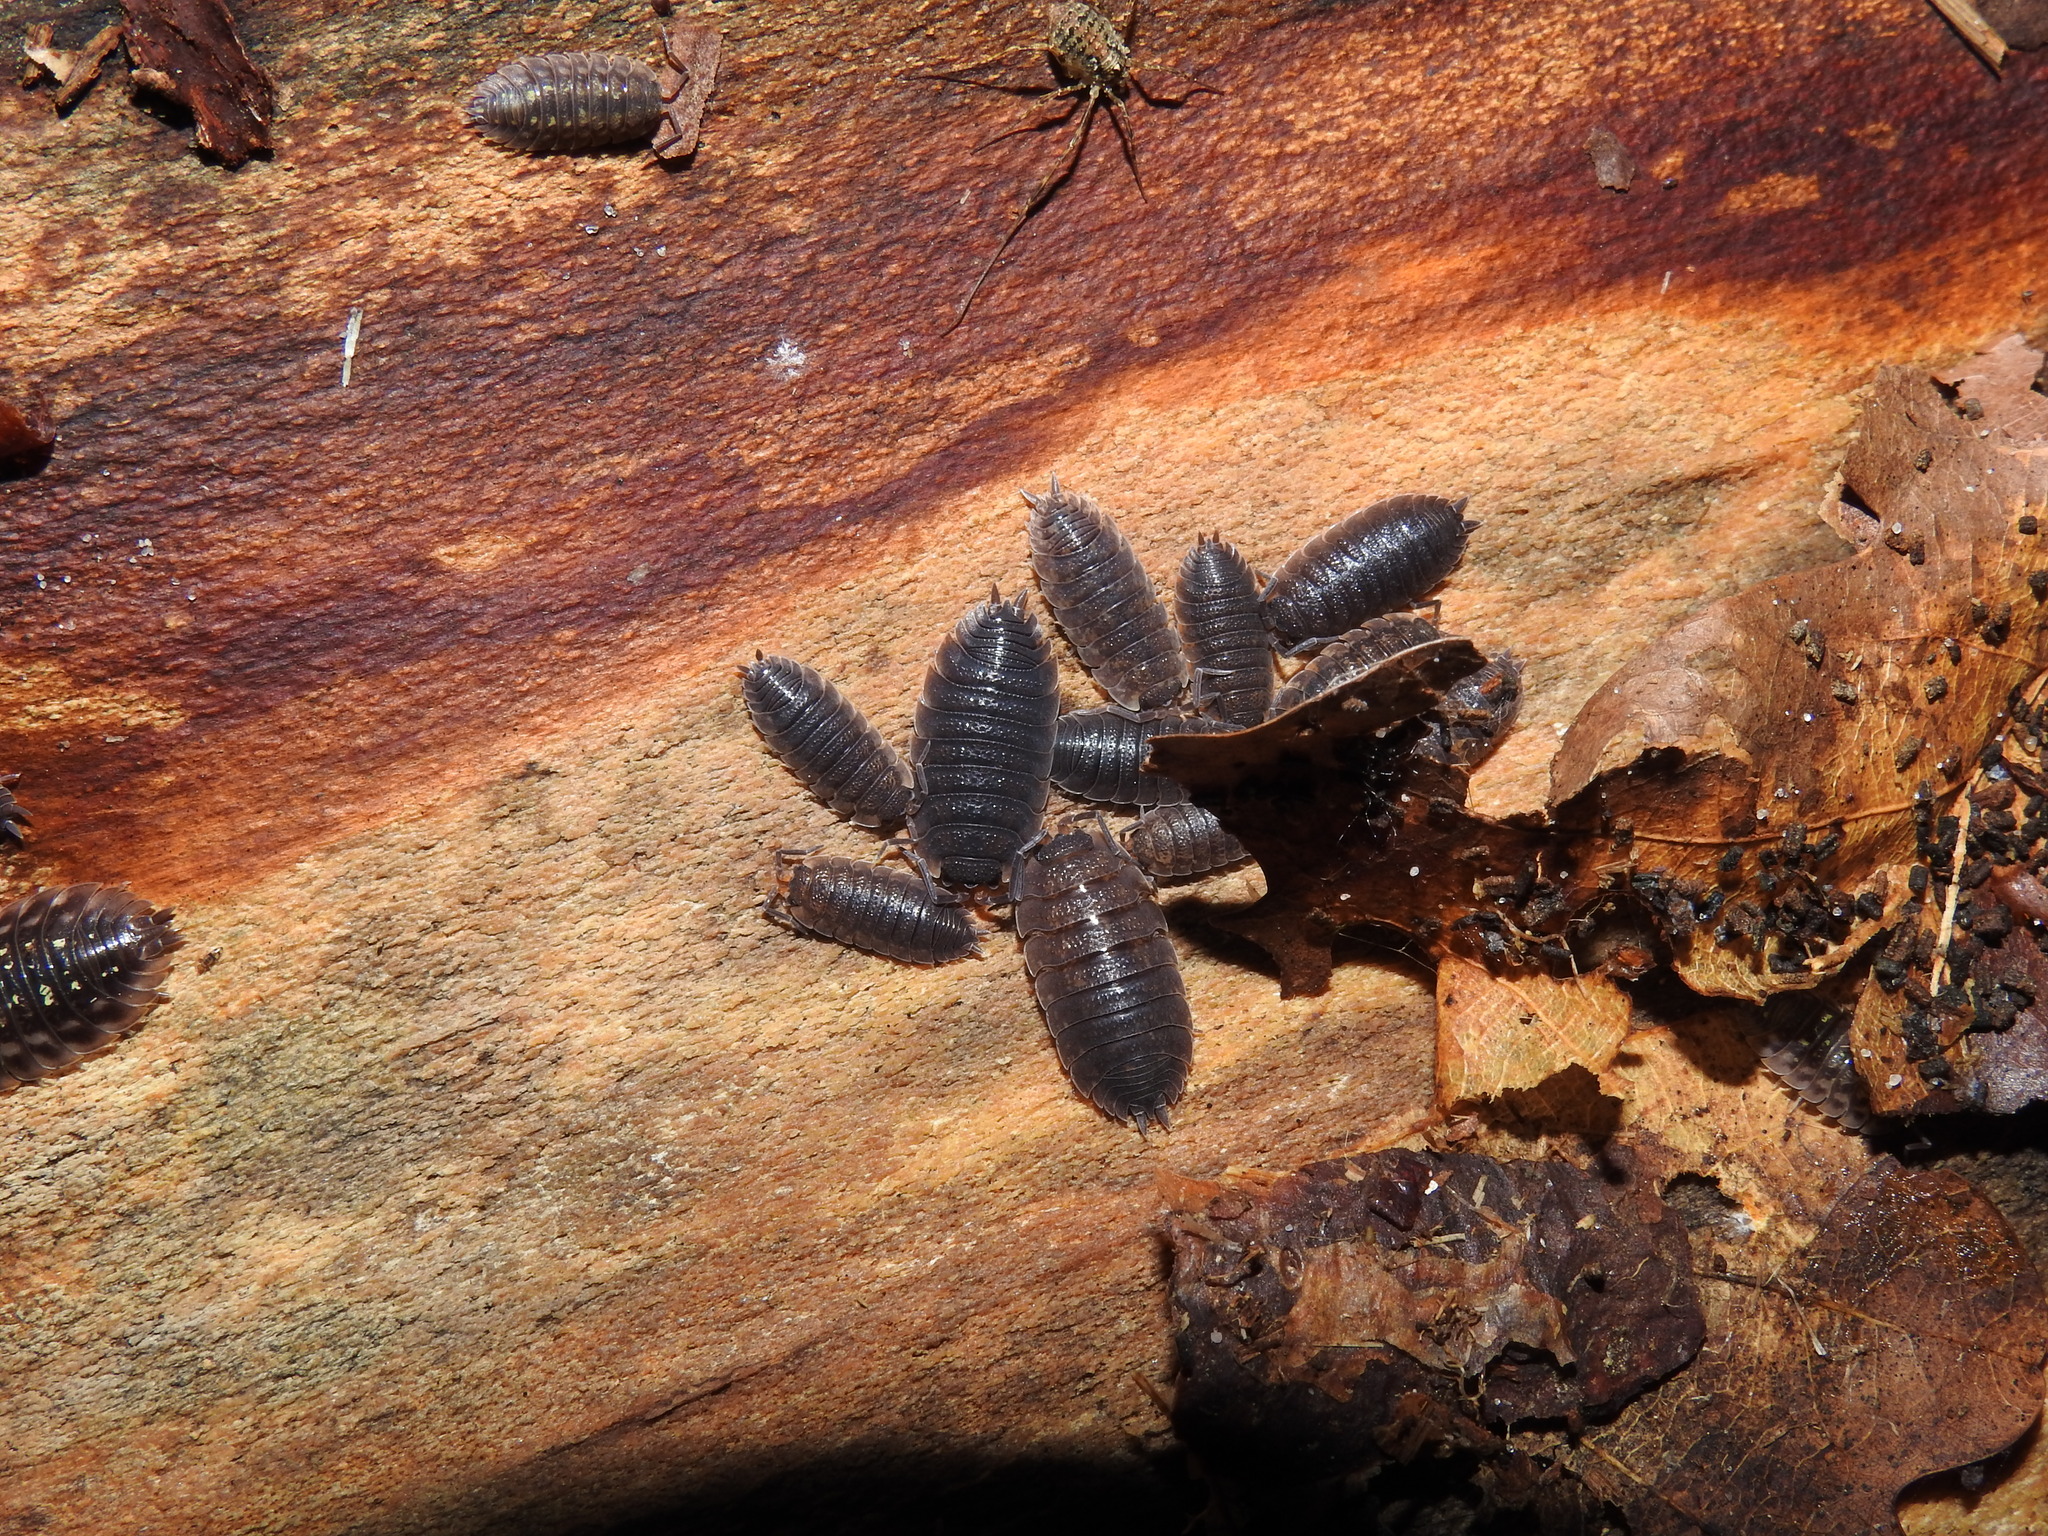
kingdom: Animalia
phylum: Arthropoda
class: Malacostraca
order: Isopoda
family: Porcellionidae
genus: Porcellio
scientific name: Porcellio scaber
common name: Common rough woodlouse
